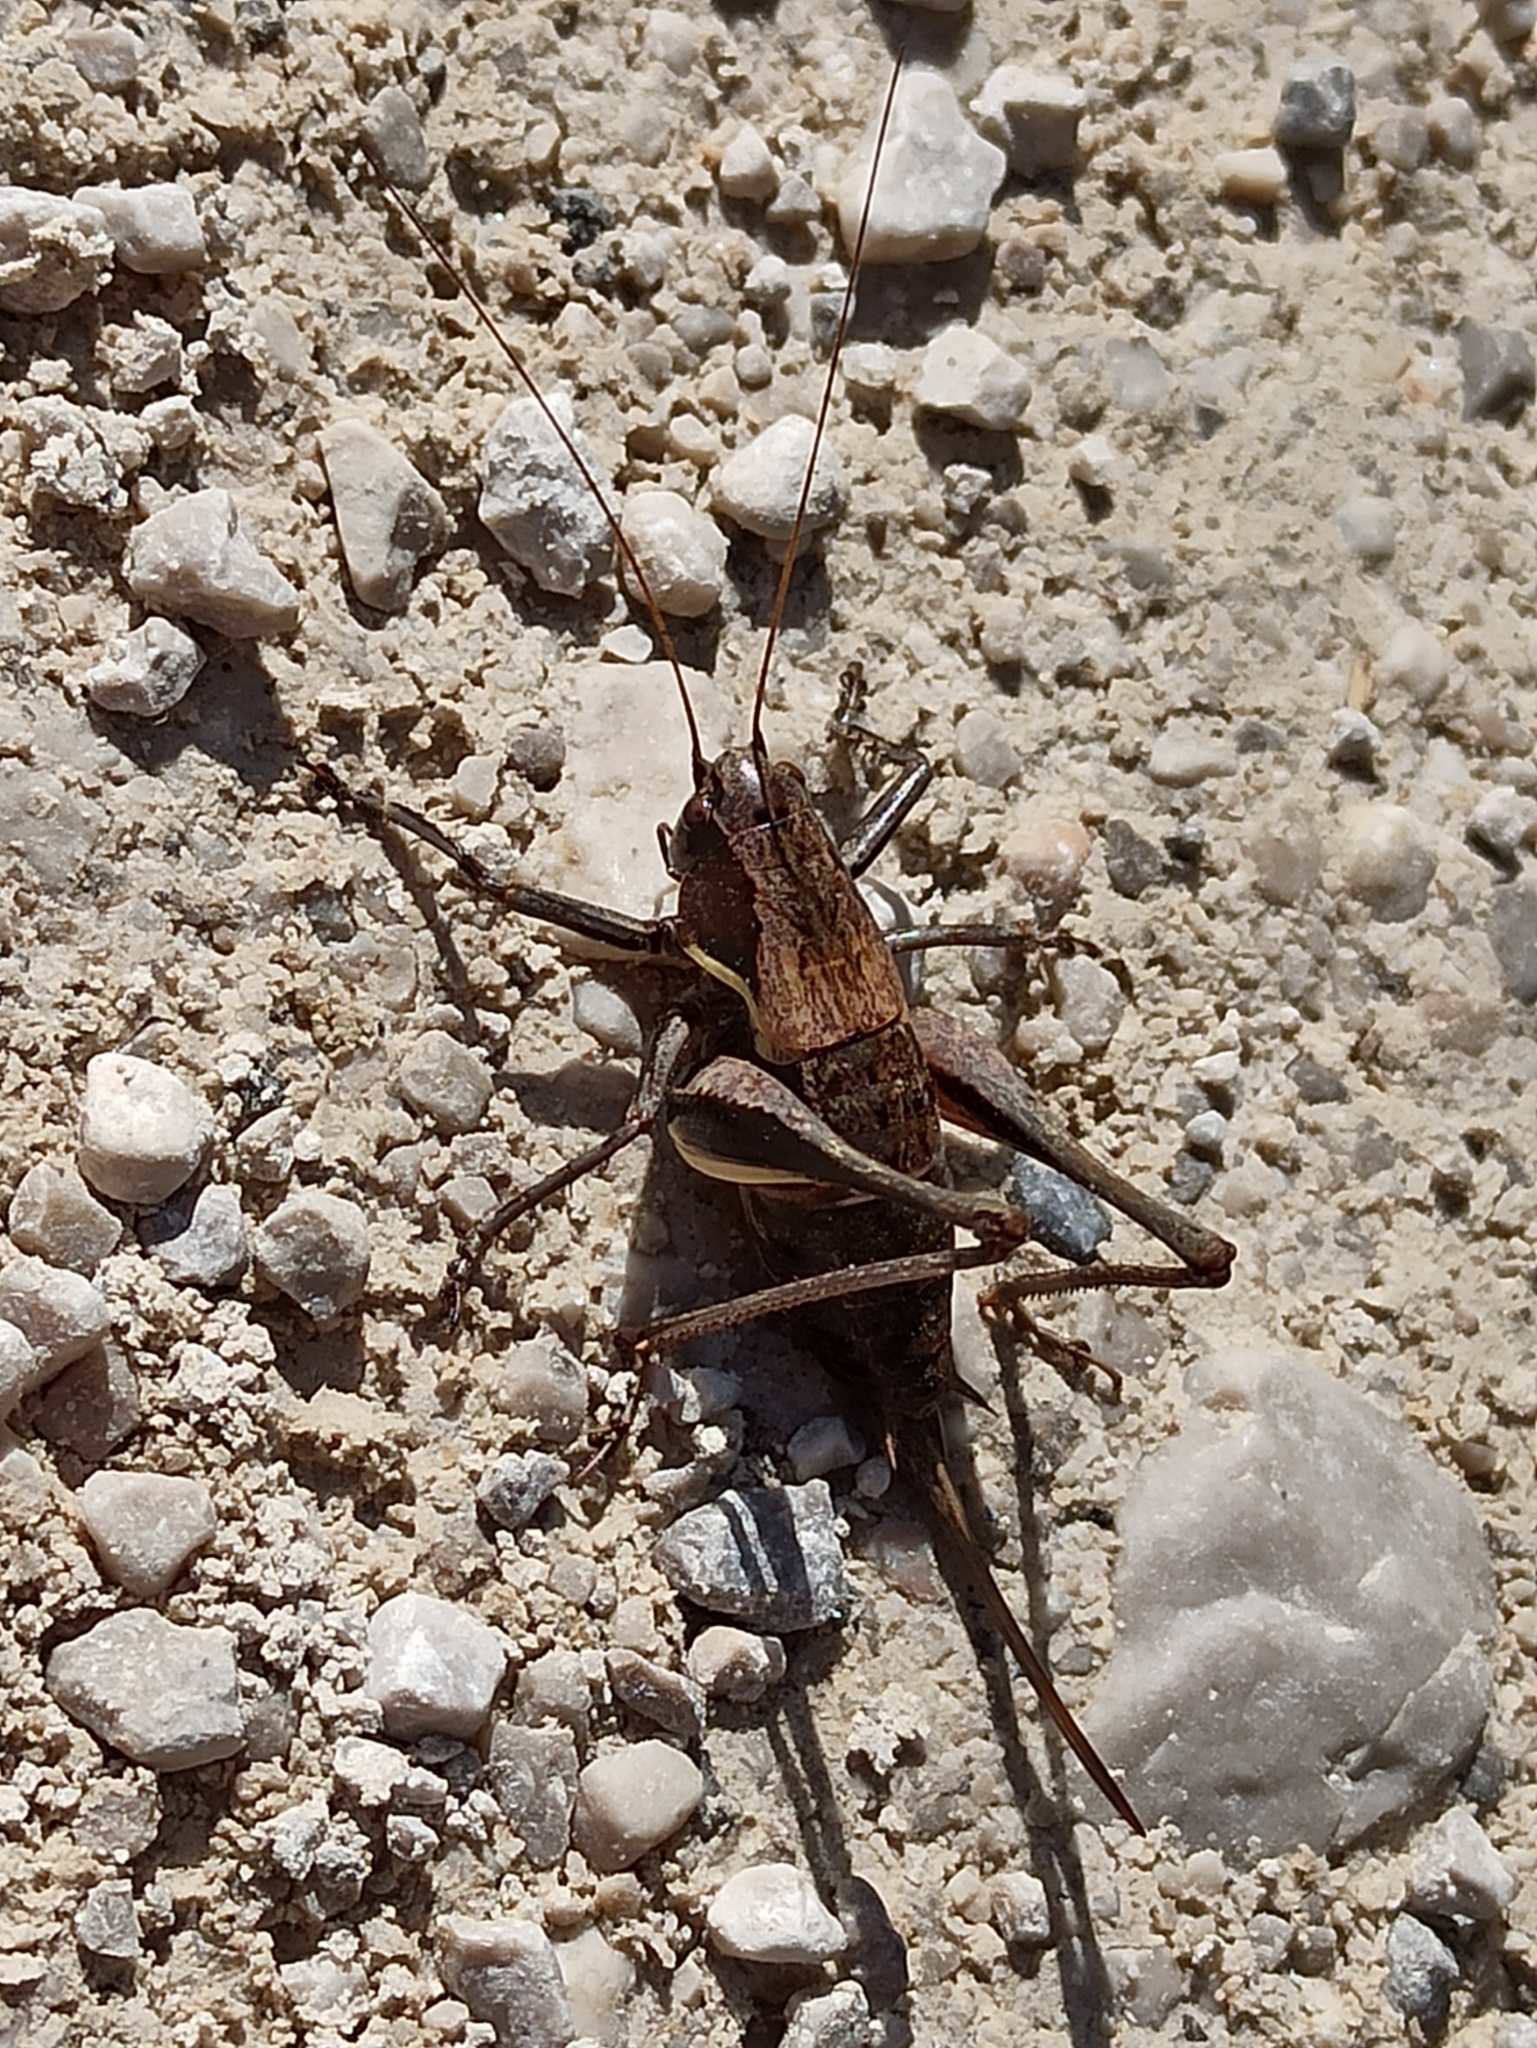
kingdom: Animalia
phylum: Arthropoda
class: Insecta
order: Orthoptera
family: Tettigoniidae
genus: Pholidoptera
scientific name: Pholidoptera aptera
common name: Alpine dark bush-cricket
